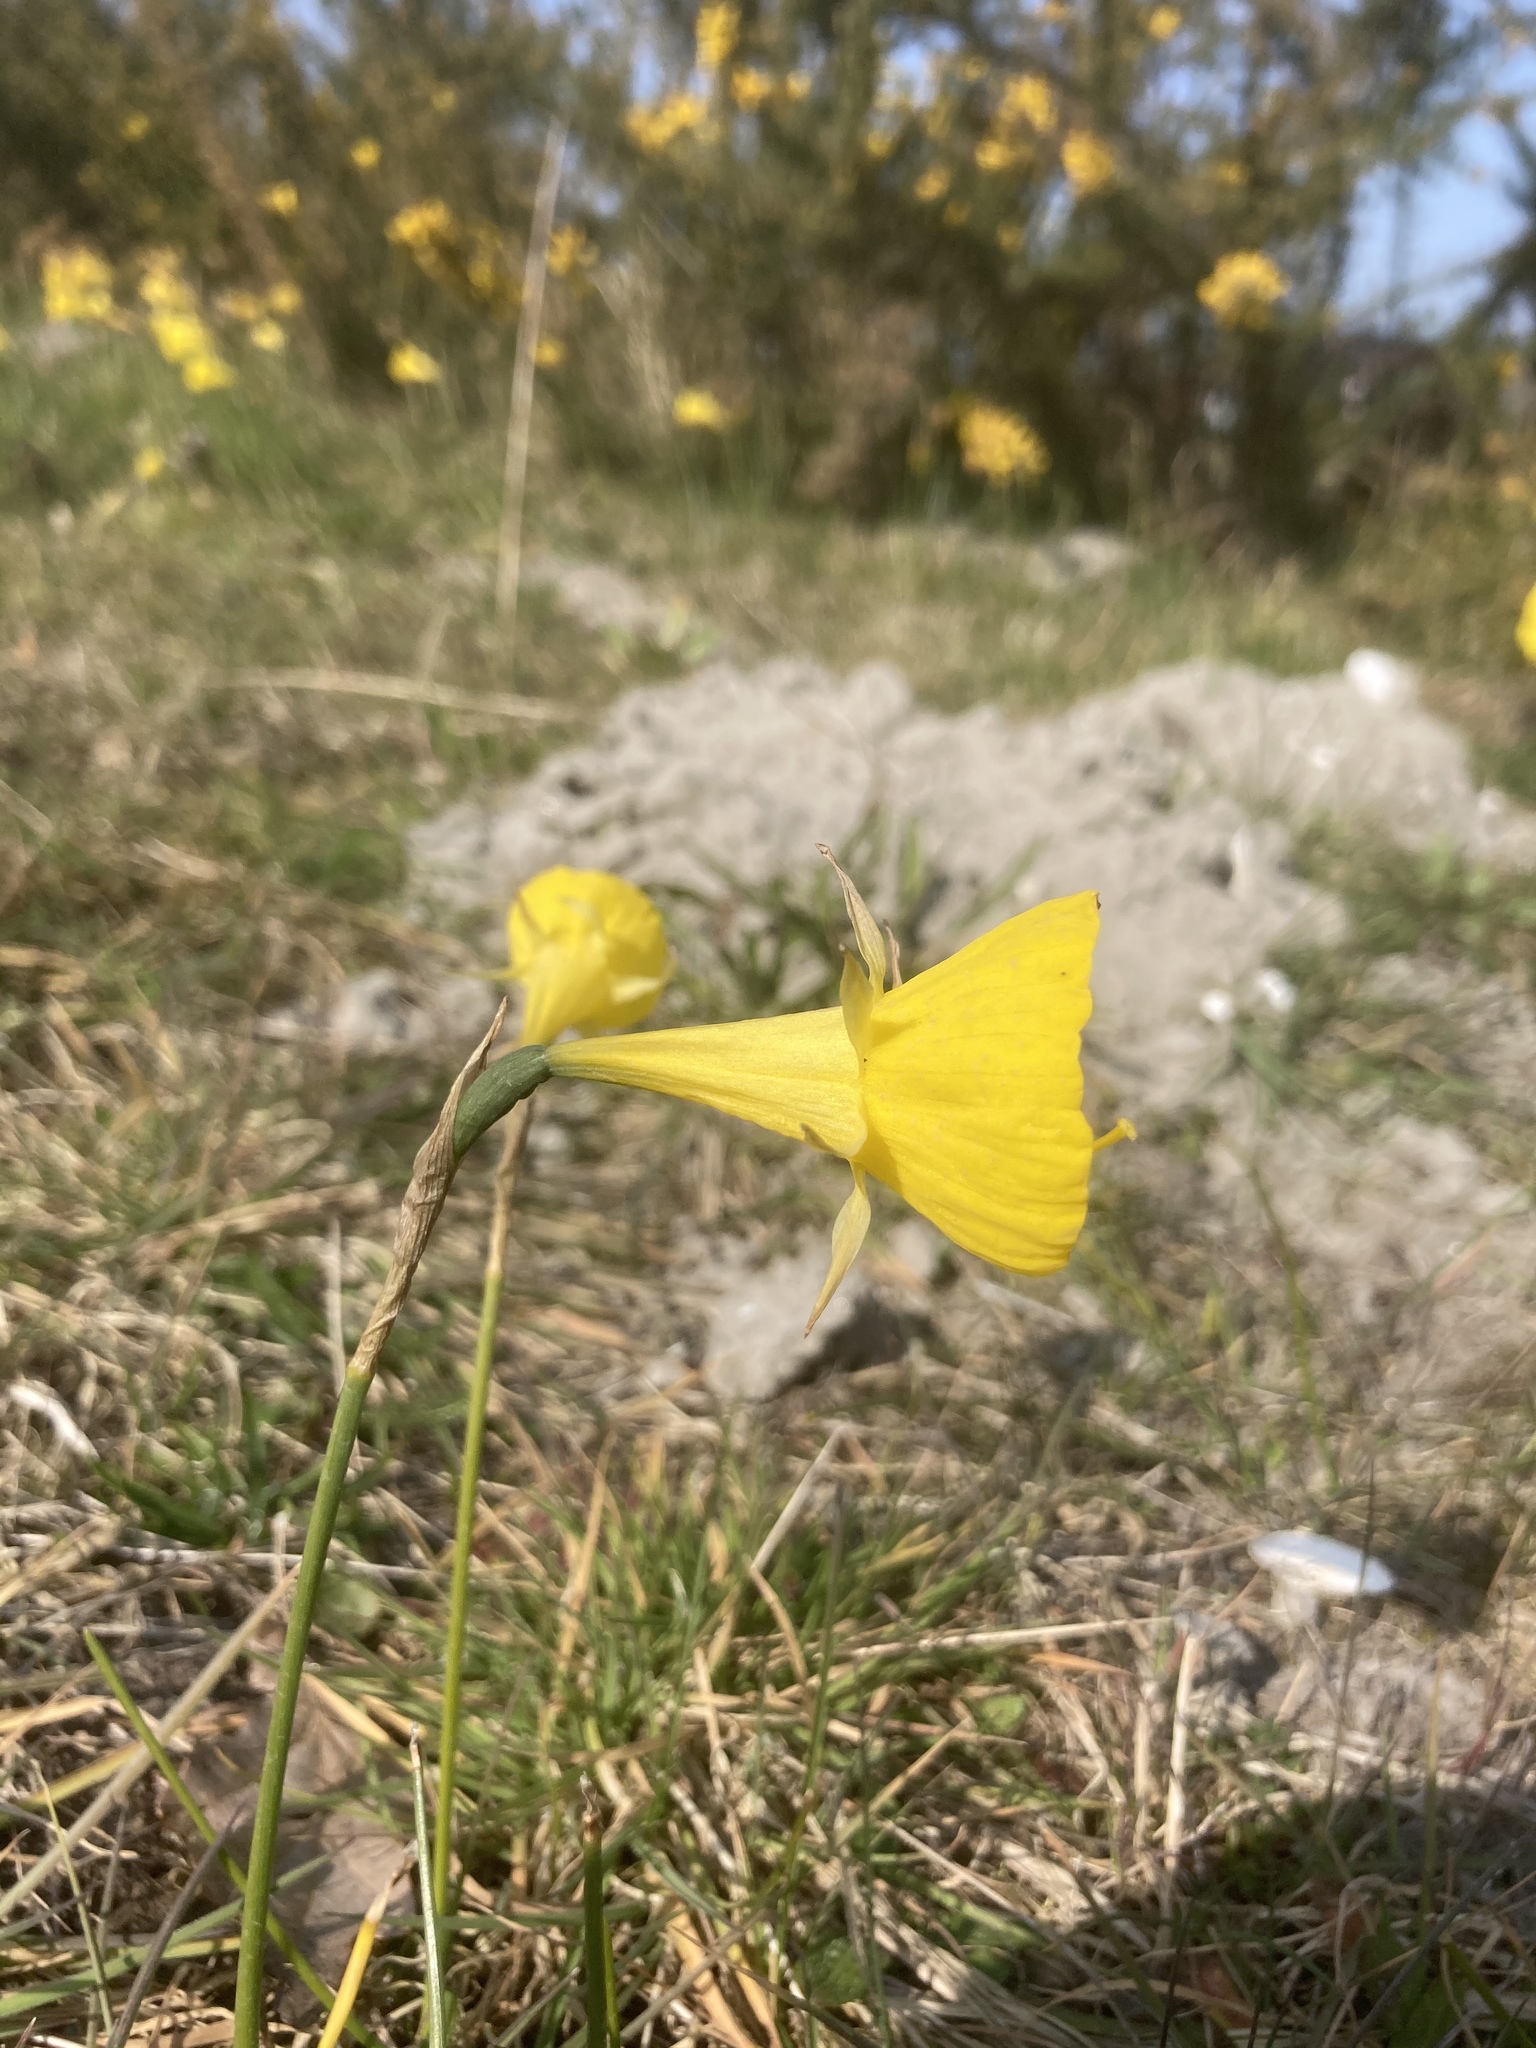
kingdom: Plantae
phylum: Tracheophyta
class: Liliopsida
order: Asparagales
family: Amaryllidaceae
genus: Narcissus
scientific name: Narcissus bulbocodium
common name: Hoop-petticoat daffodil
